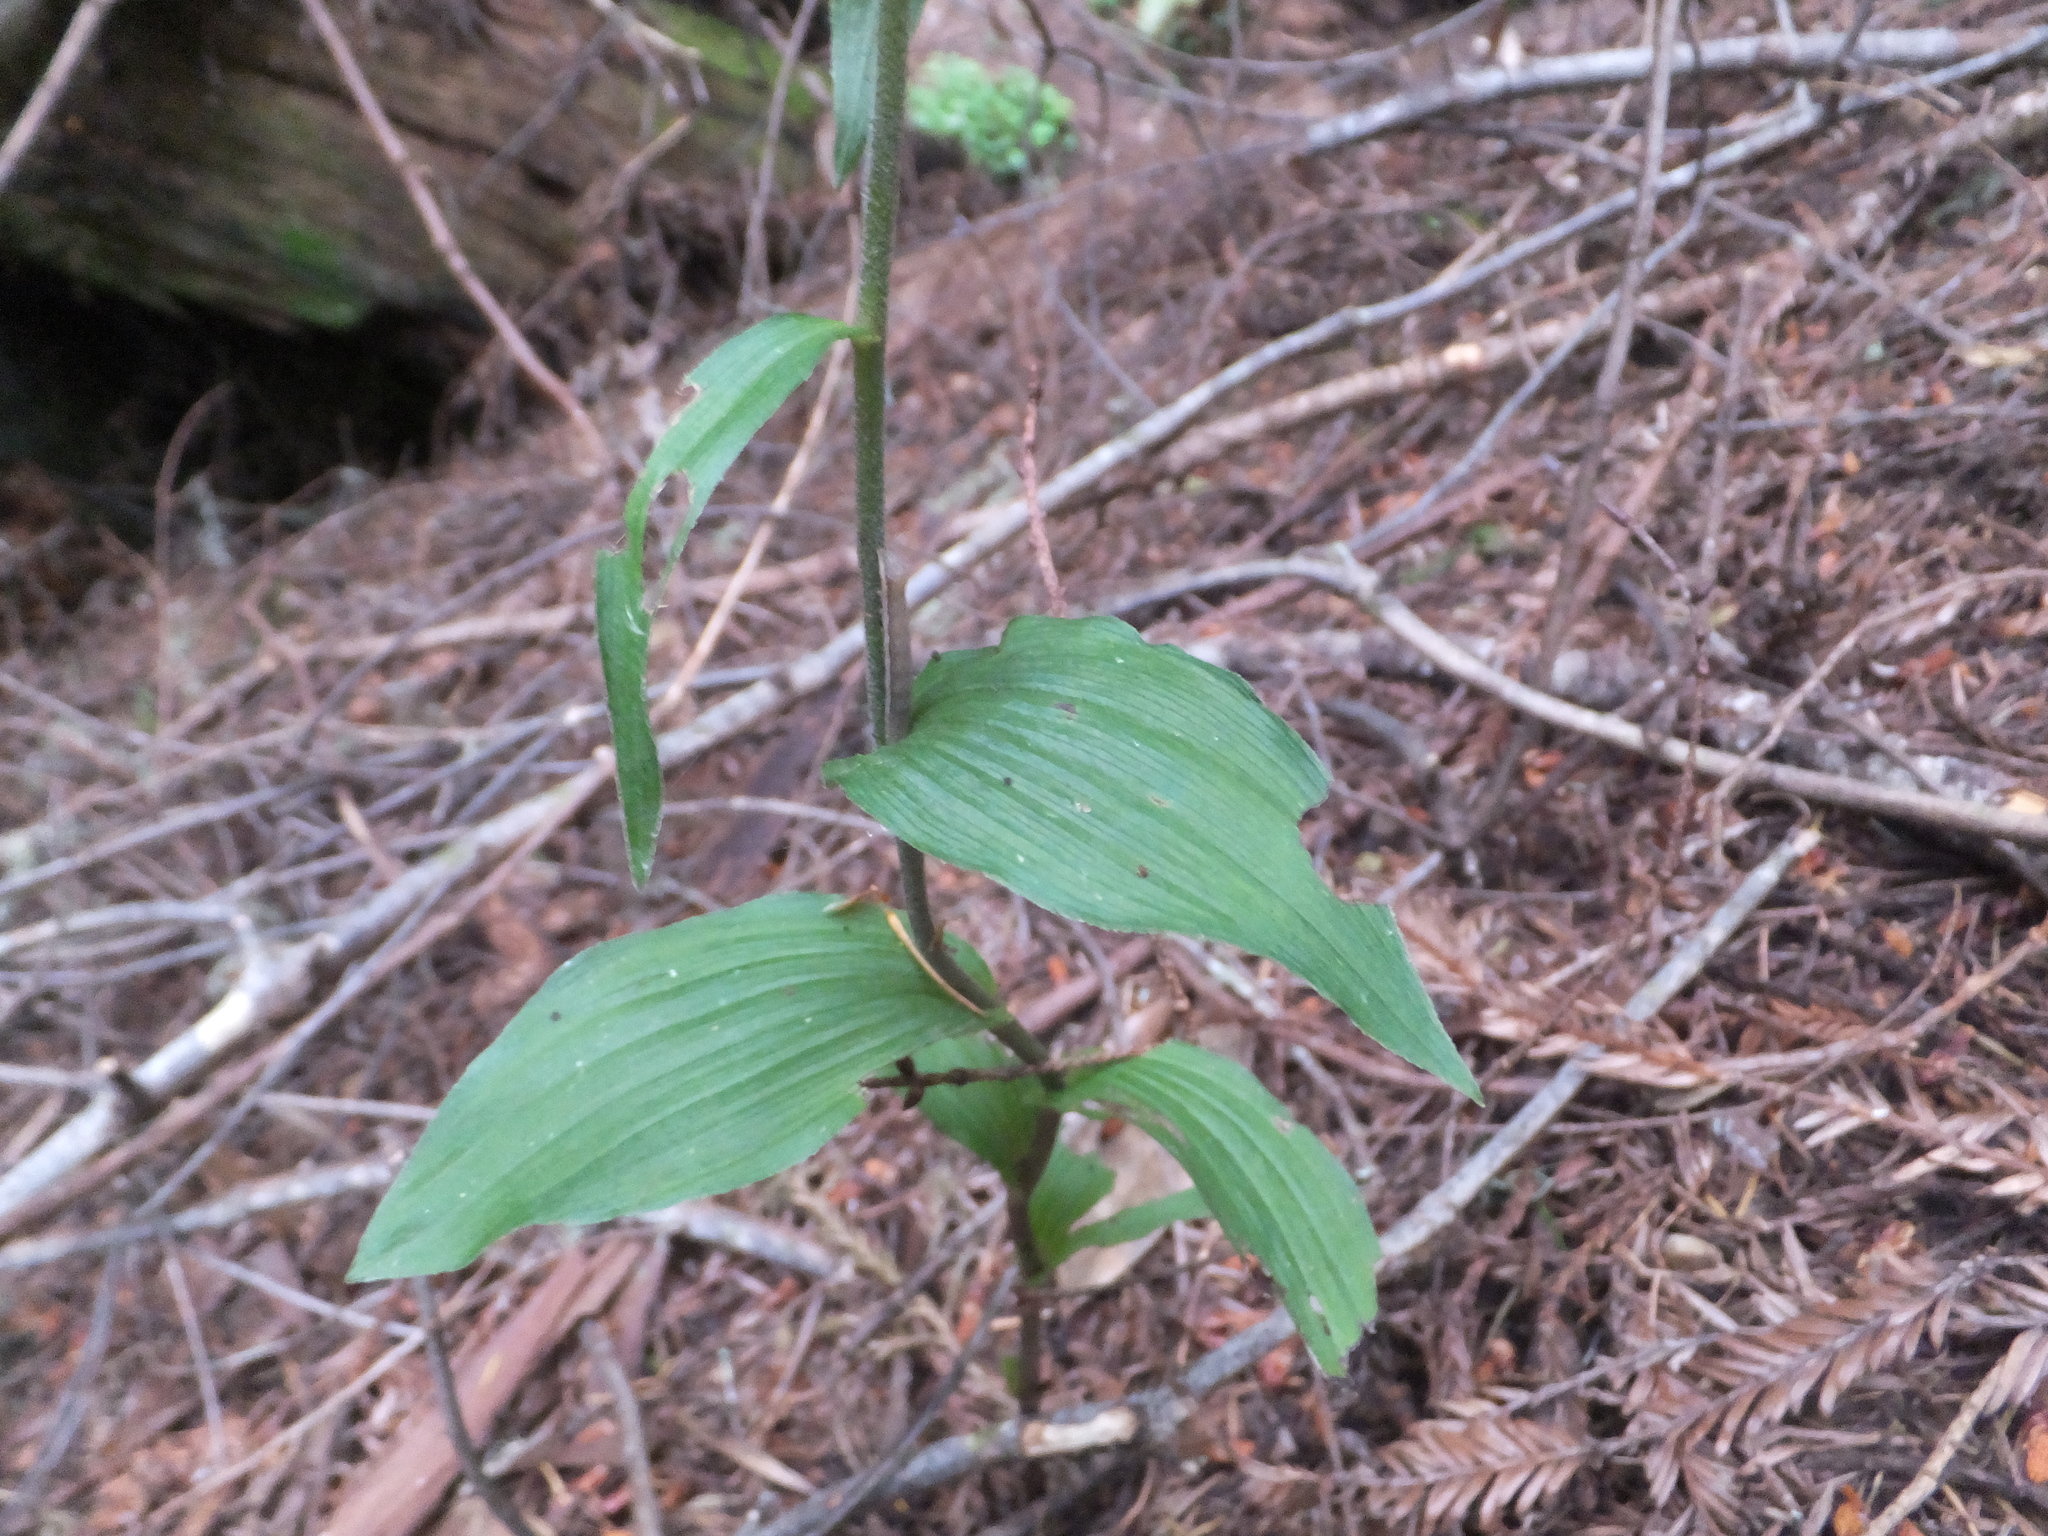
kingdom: Plantae
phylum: Tracheophyta
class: Liliopsida
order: Asparagales
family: Orchidaceae
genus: Epipactis
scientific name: Epipactis helleborine
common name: Broad-leaved helleborine
